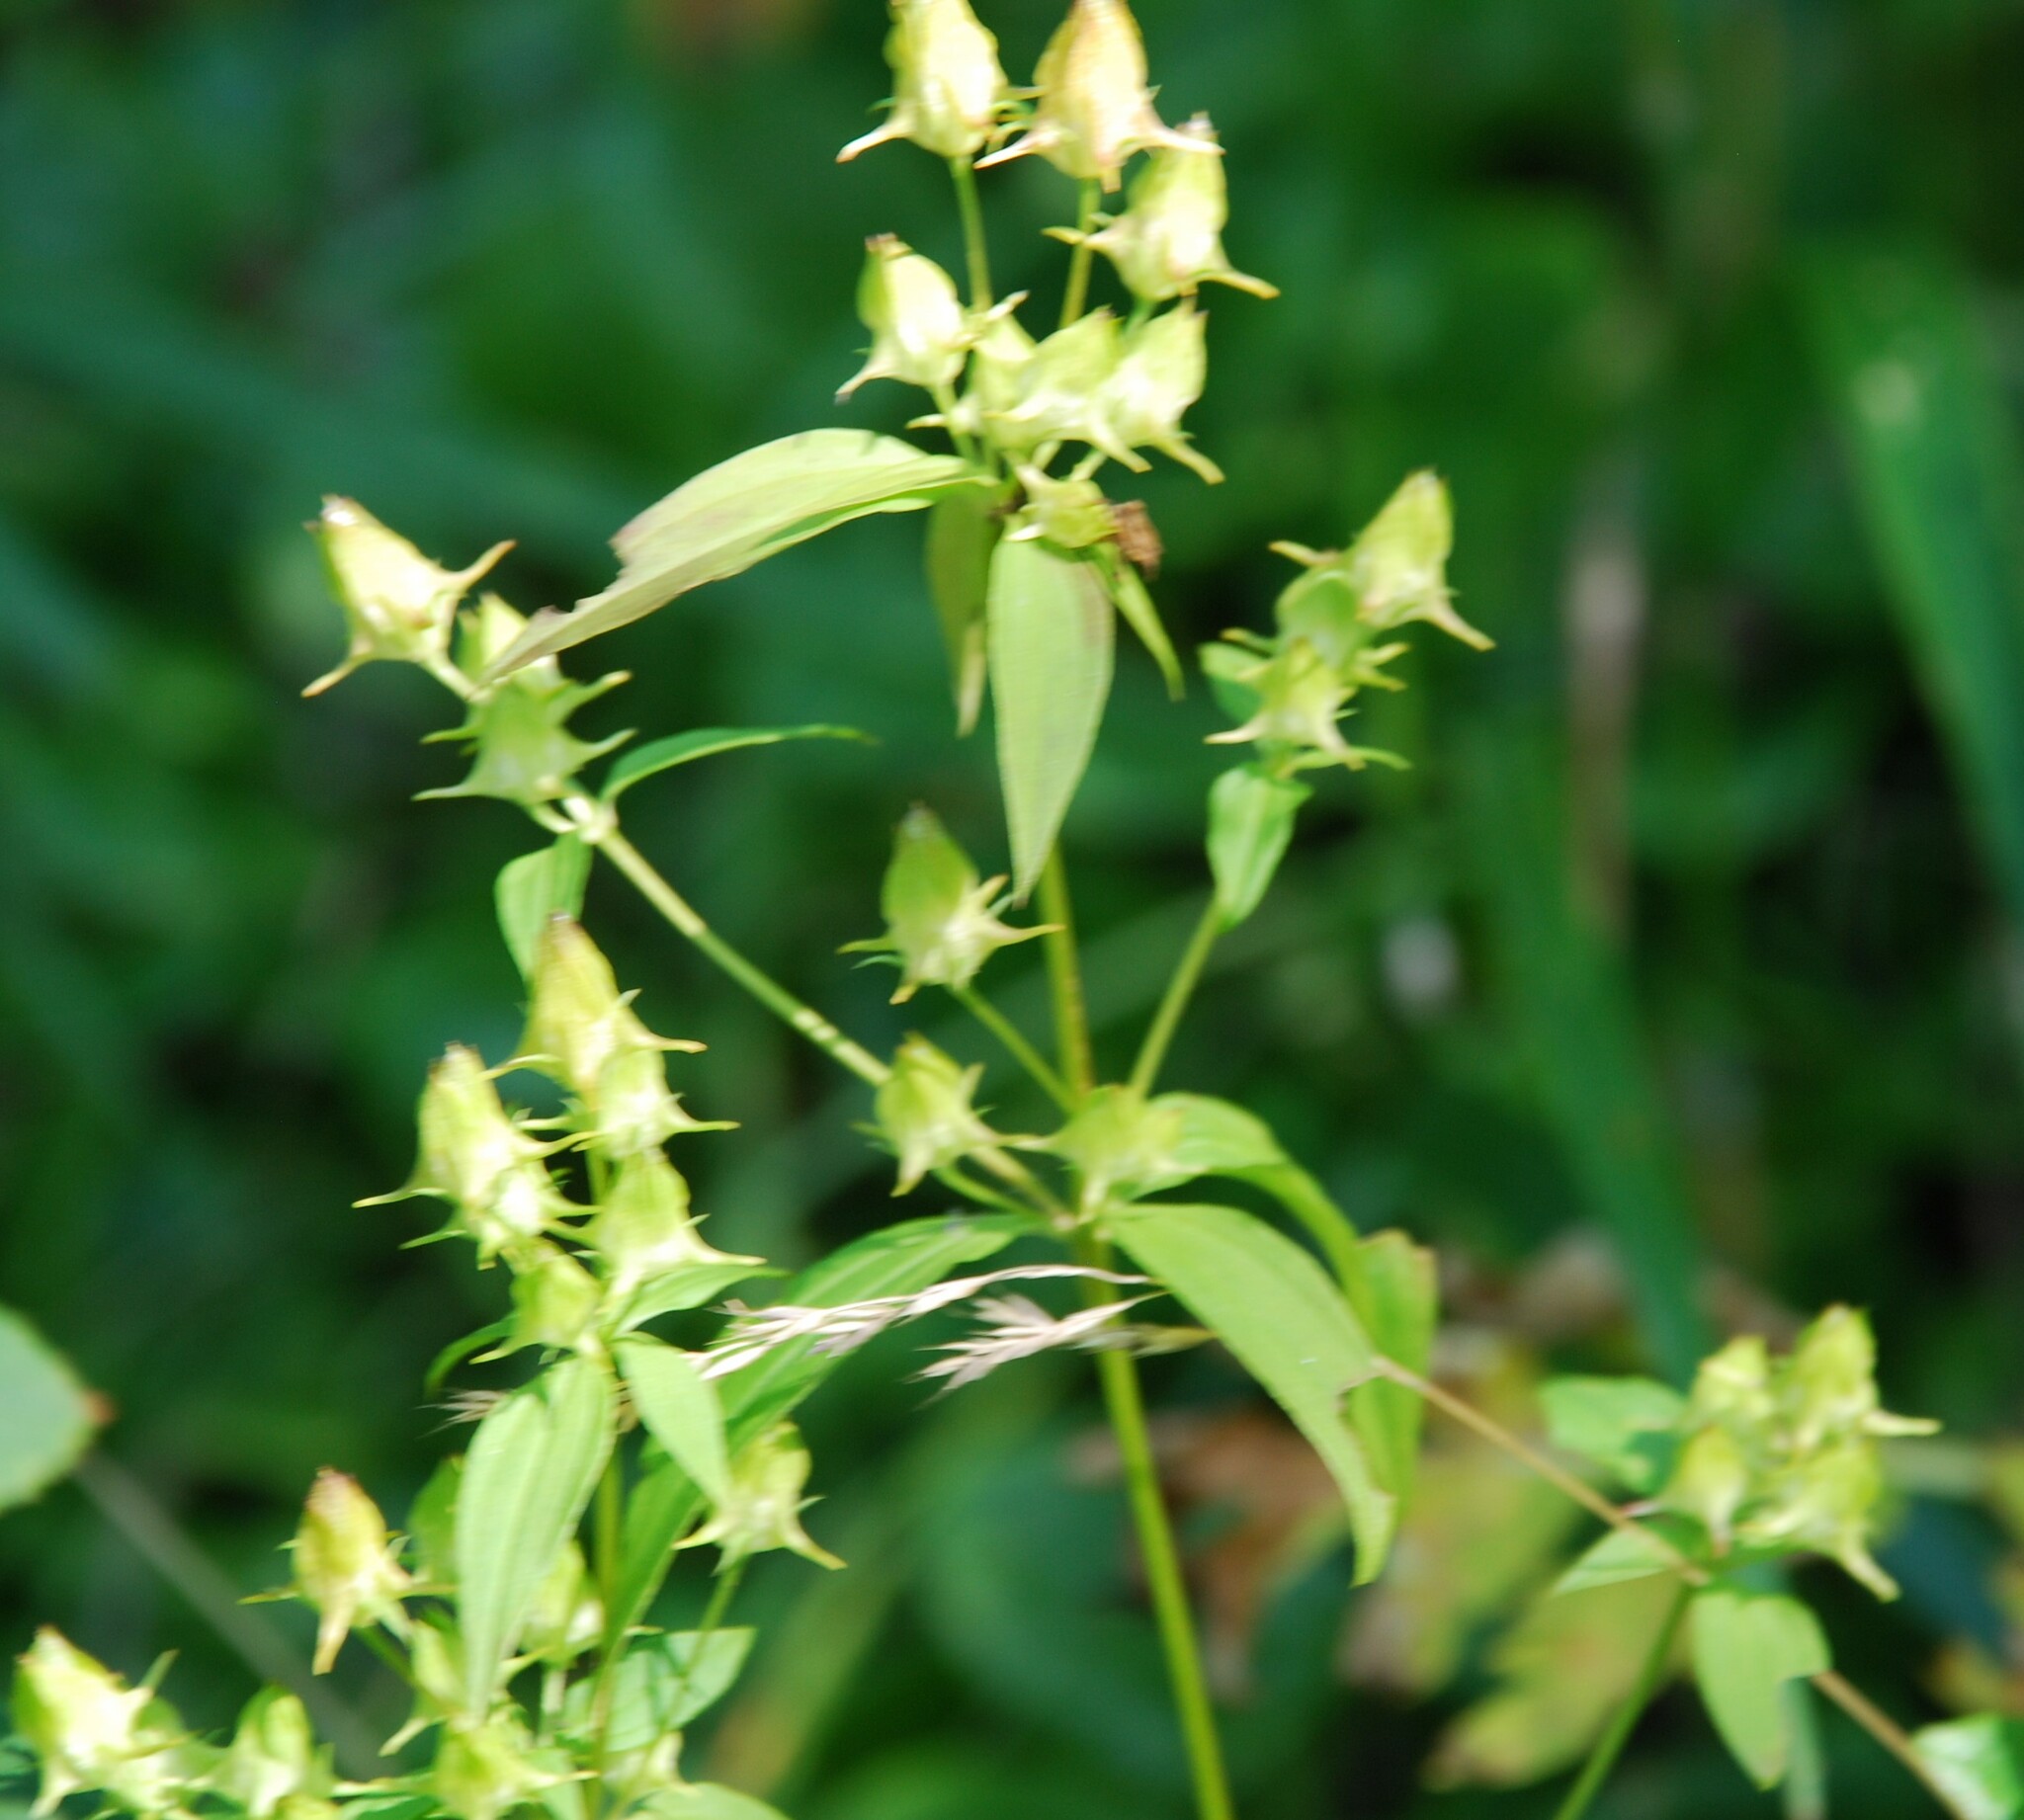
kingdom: Plantae
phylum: Tracheophyta
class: Magnoliopsida
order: Gentianales
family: Gentianaceae
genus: Halenia
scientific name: Halenia corniculata
